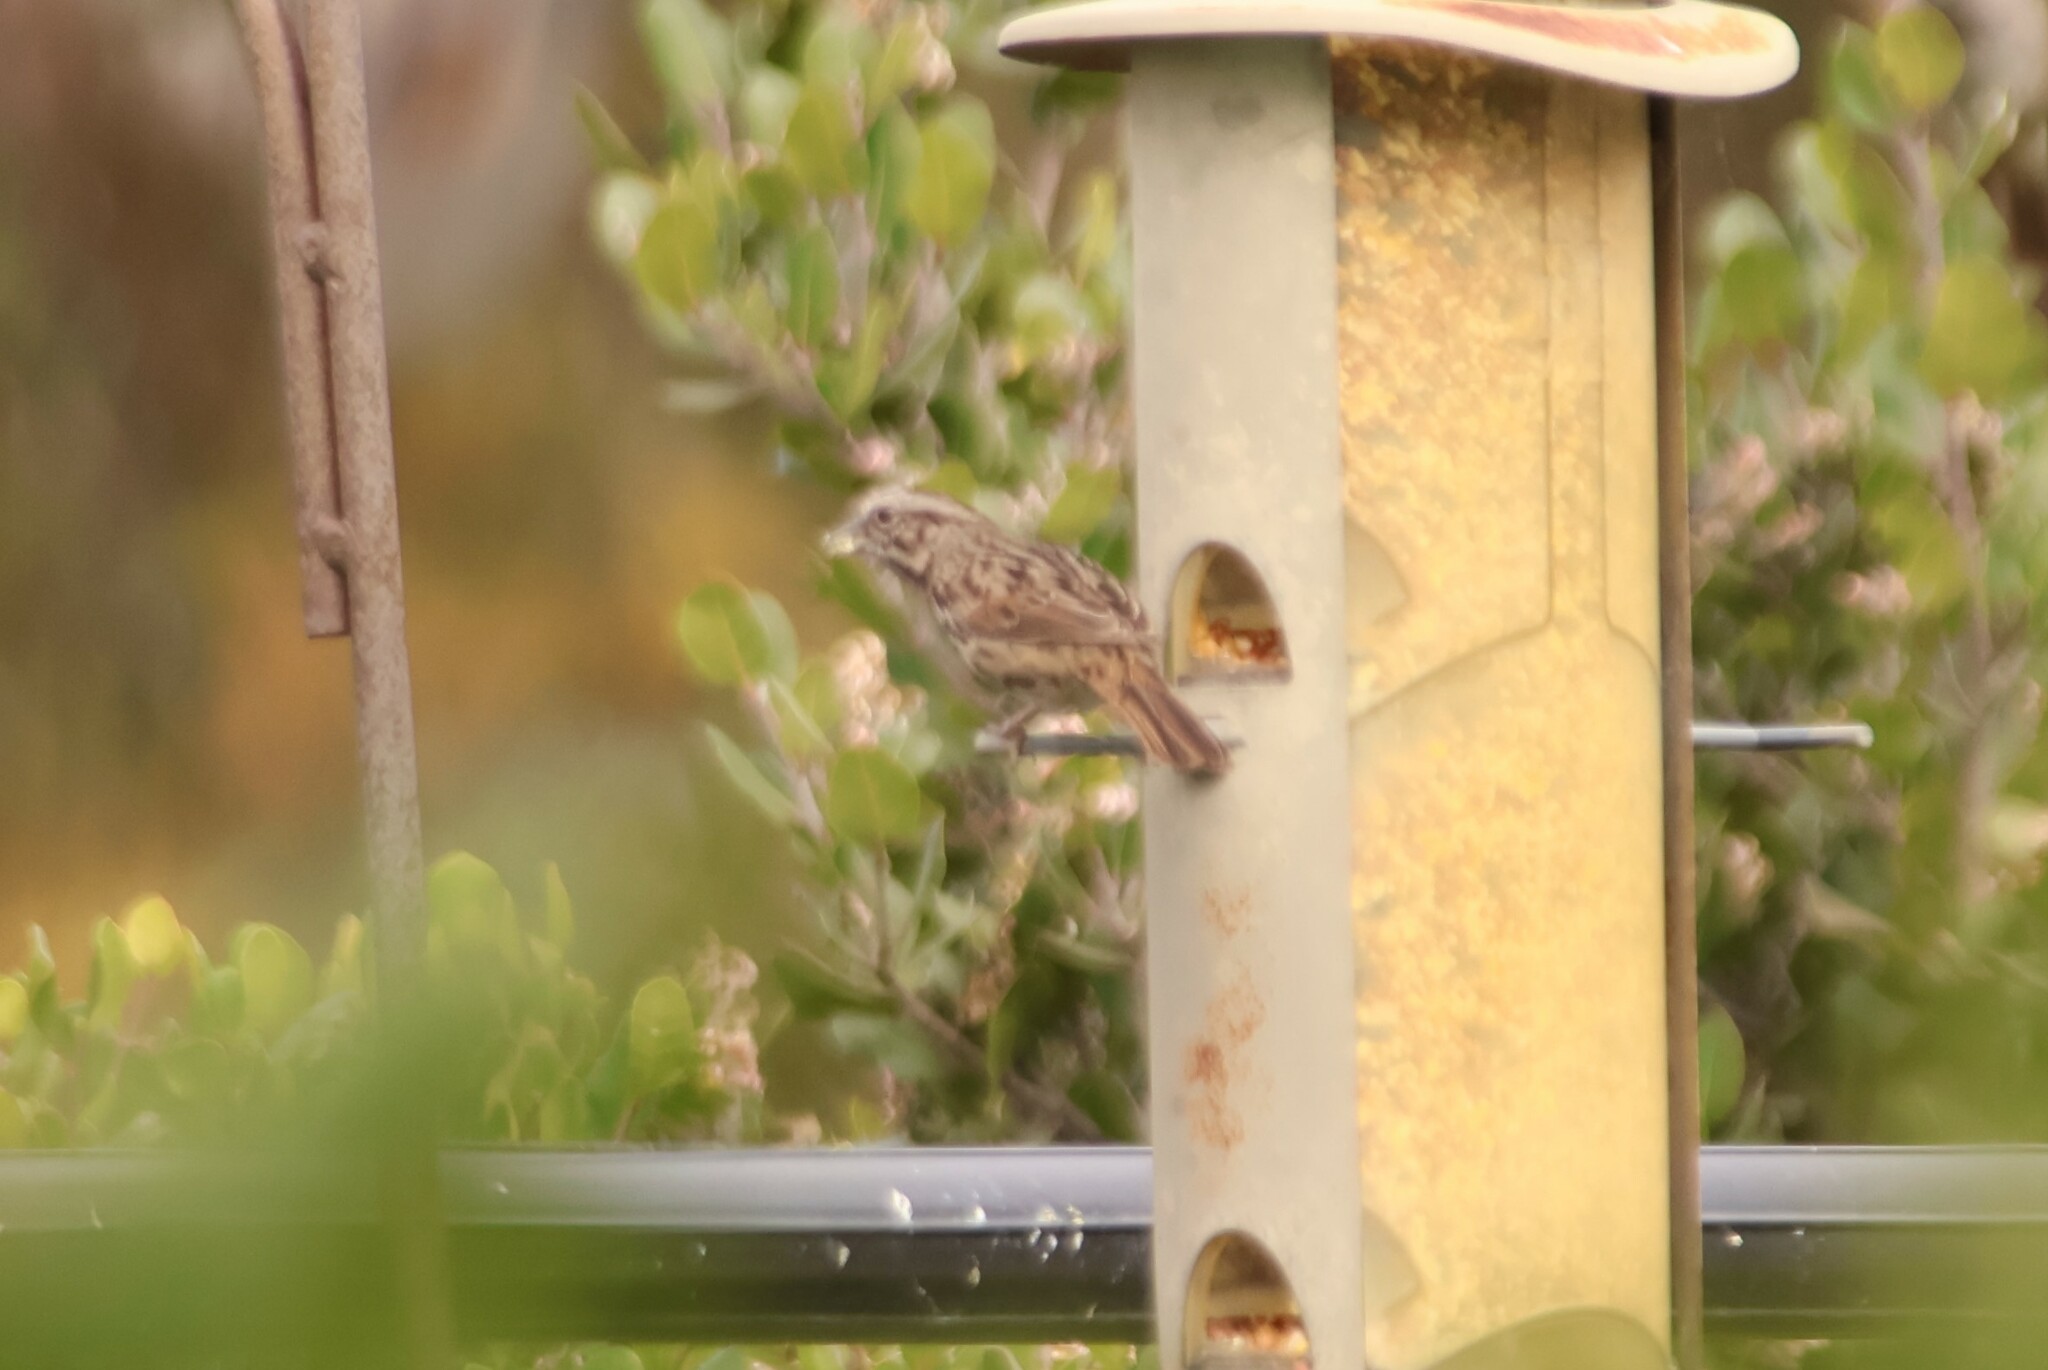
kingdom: Animalia
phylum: Chordata
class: Aves
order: Passeriformes
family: Passerellidae
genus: Melospiza
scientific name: Melospiza melodia
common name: Song sparrow
